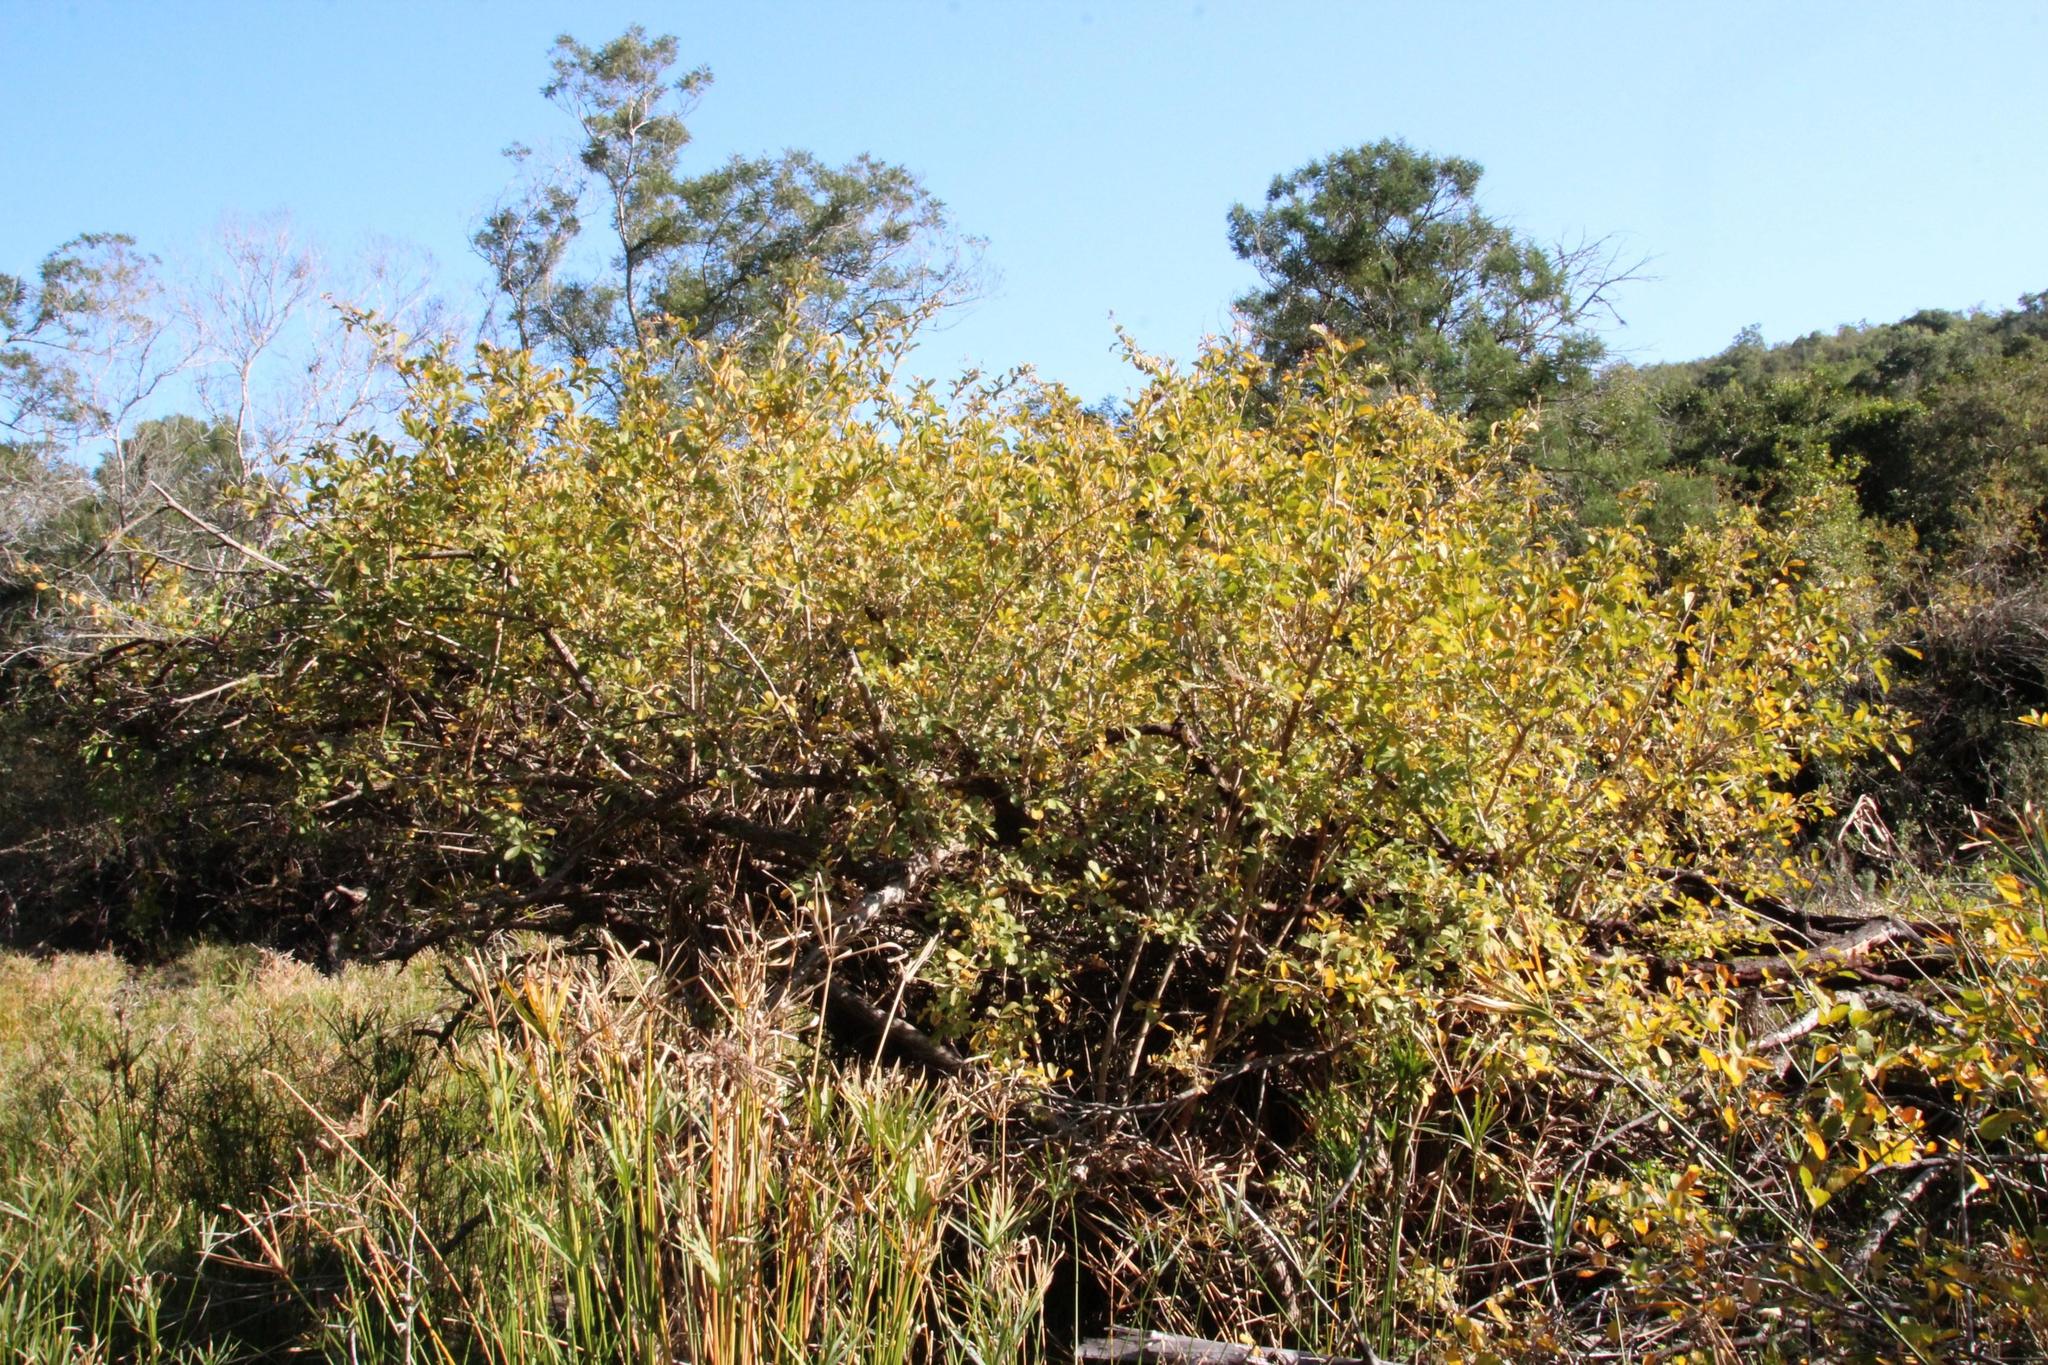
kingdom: Plantae
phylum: Tracheophyta
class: Magnoliopsida
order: Sapindales
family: Anacardiaceae
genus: Searsia
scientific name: Searsia pyroides
